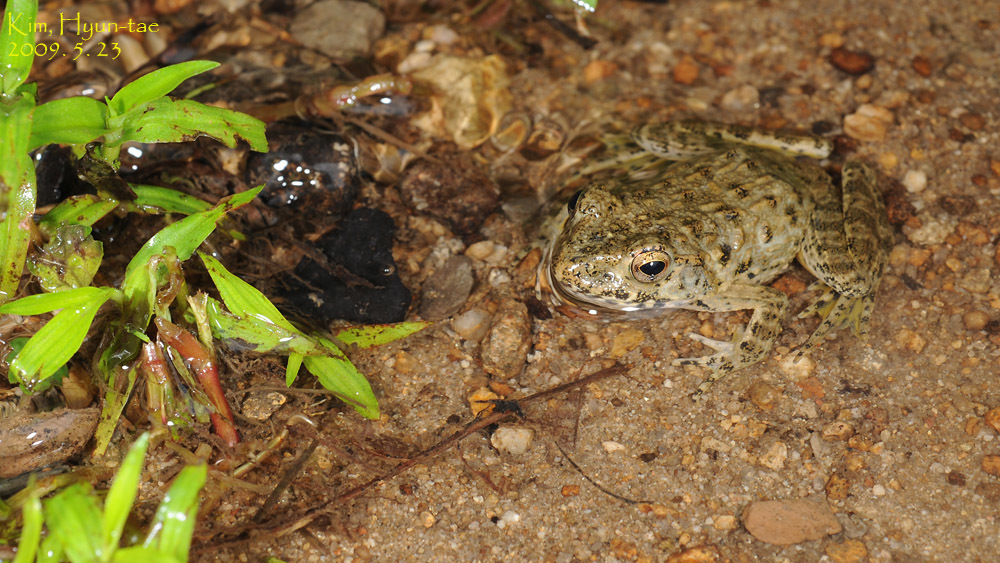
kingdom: Animalia
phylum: Chordata
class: Amphibia
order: Anura
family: Ranidae
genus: Glandirana
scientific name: Glandirana emeljanovi
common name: Northeast china rough-skinned frog
